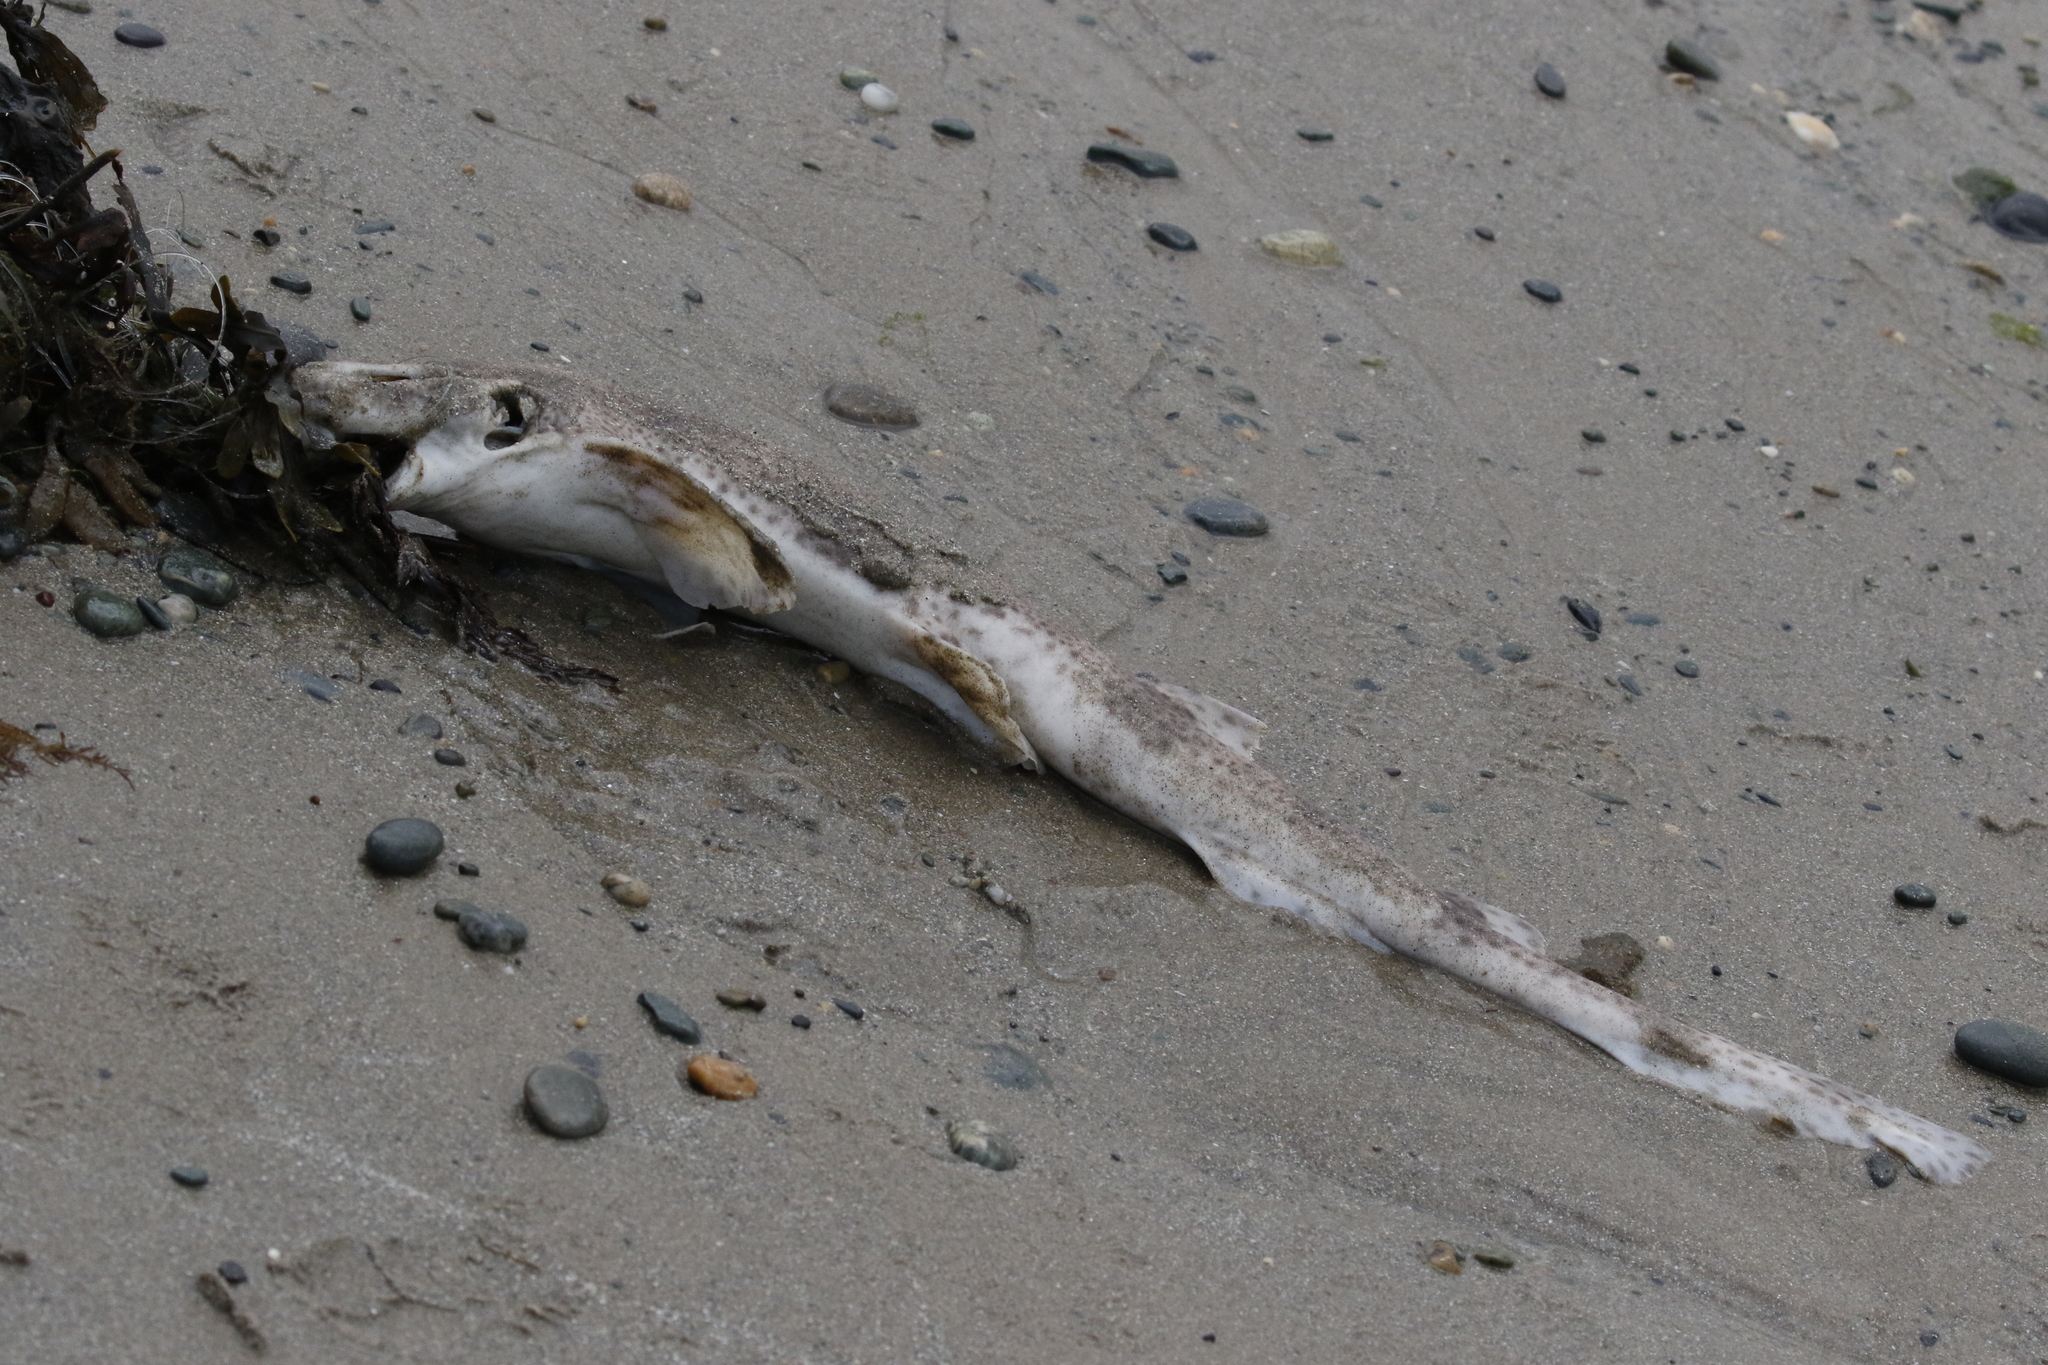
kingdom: Animalia
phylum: Chordata
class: Elasmobranchii
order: Carcharhiniformes
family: Scyliorhinidae
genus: Scyliorhinus
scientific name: Scyliorhinus canicula
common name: Lesser spotted dogfish
